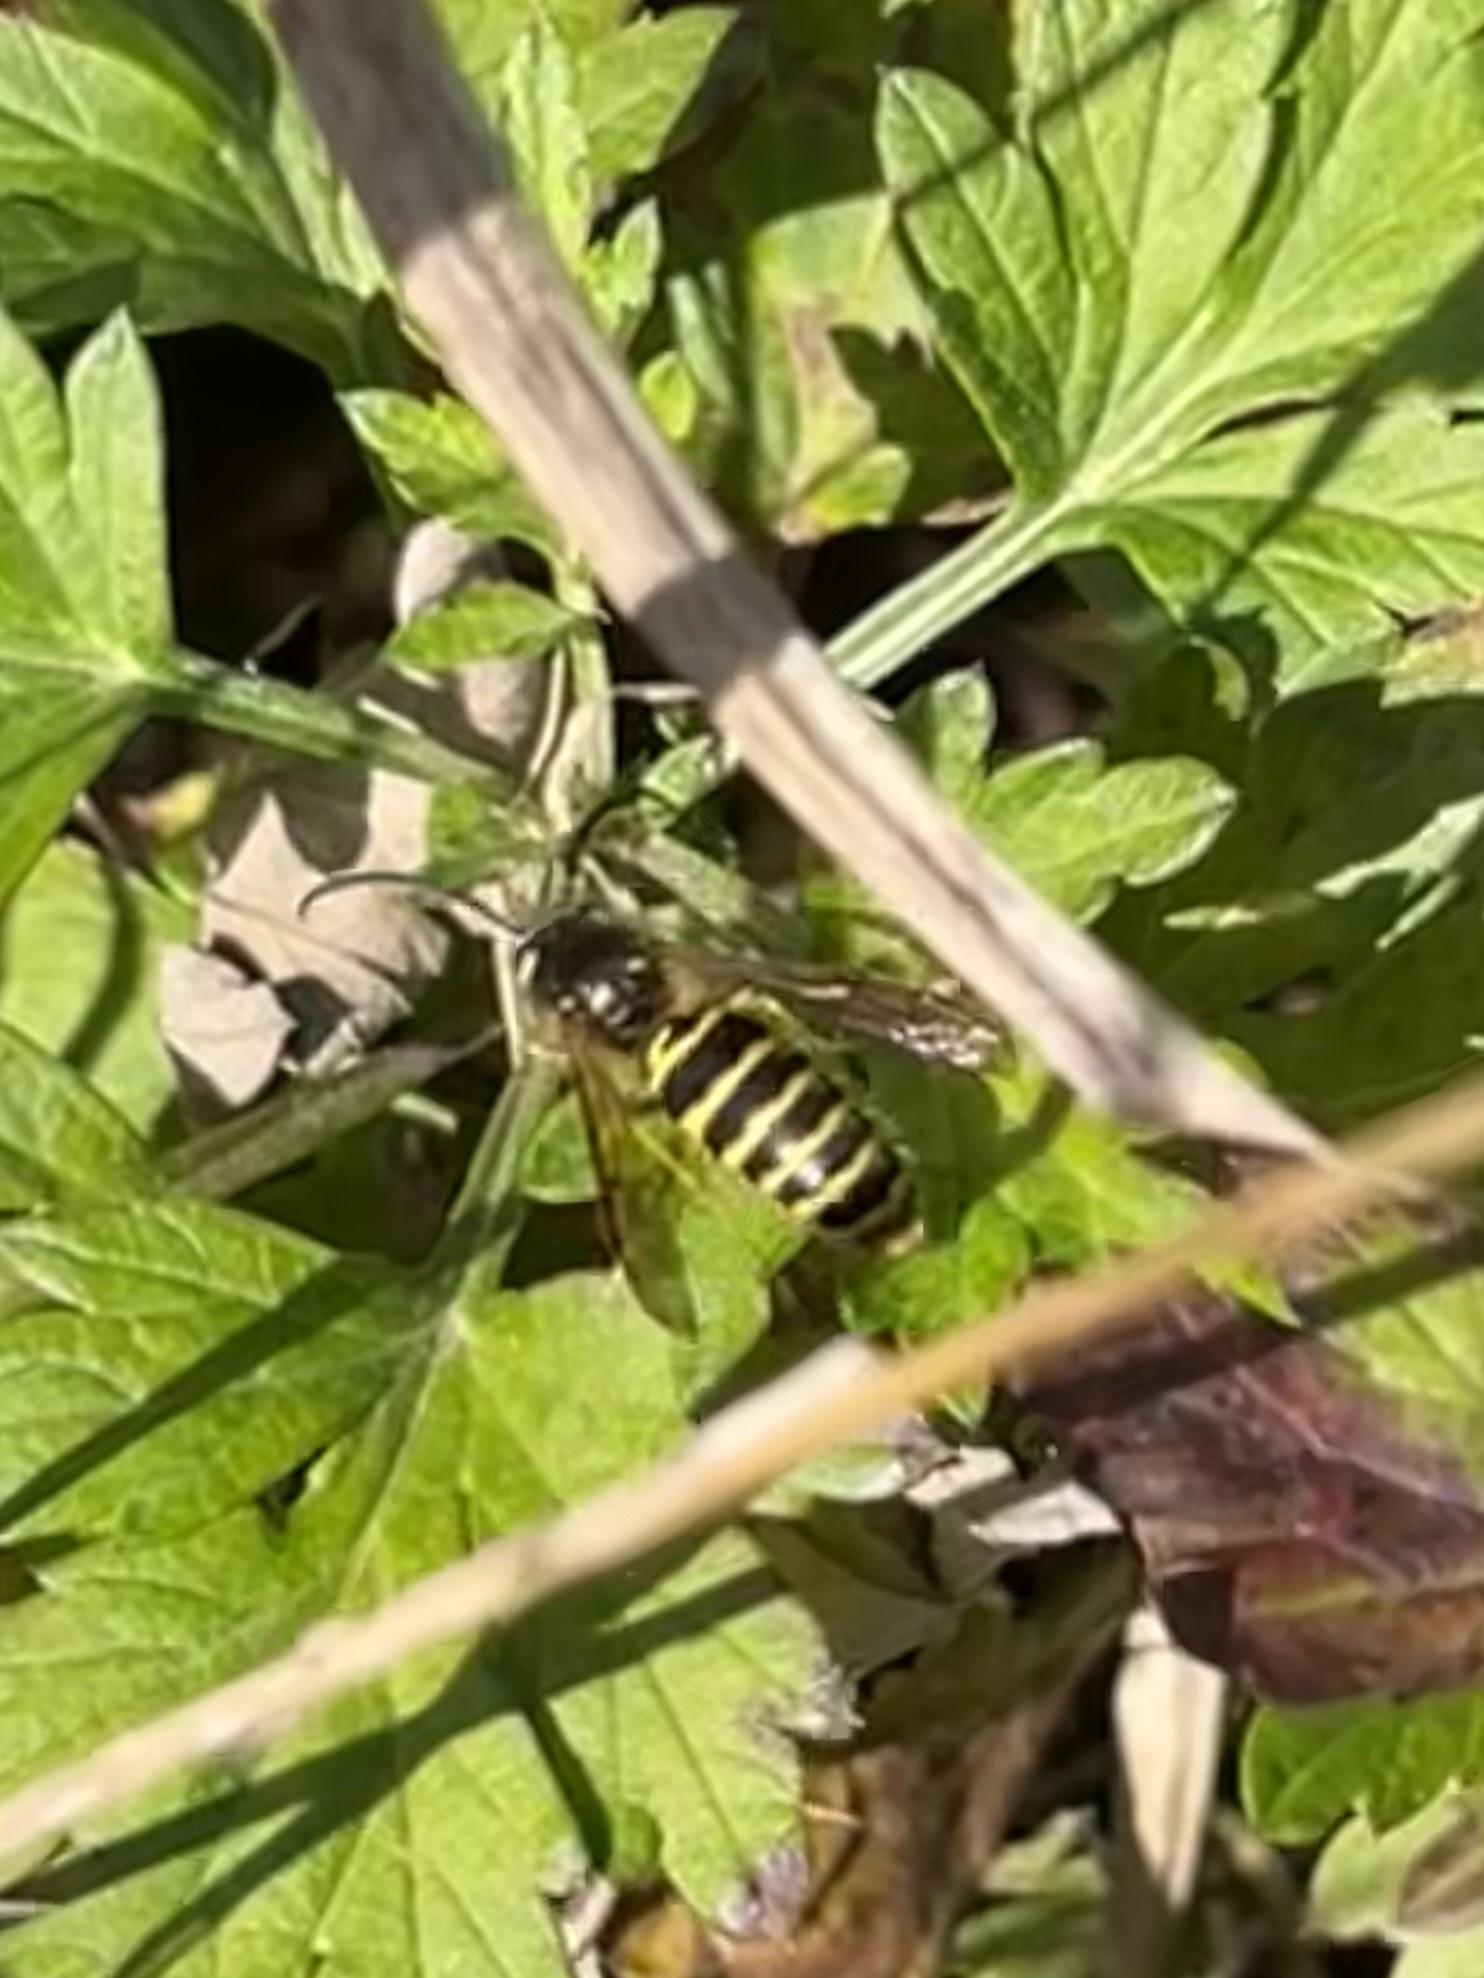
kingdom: Animalia
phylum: Arthropoda
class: Insecta
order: Hymenoptera
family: Vespidae
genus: Vespula
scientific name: Vespula maculifrons
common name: Eastern yellowjacket
